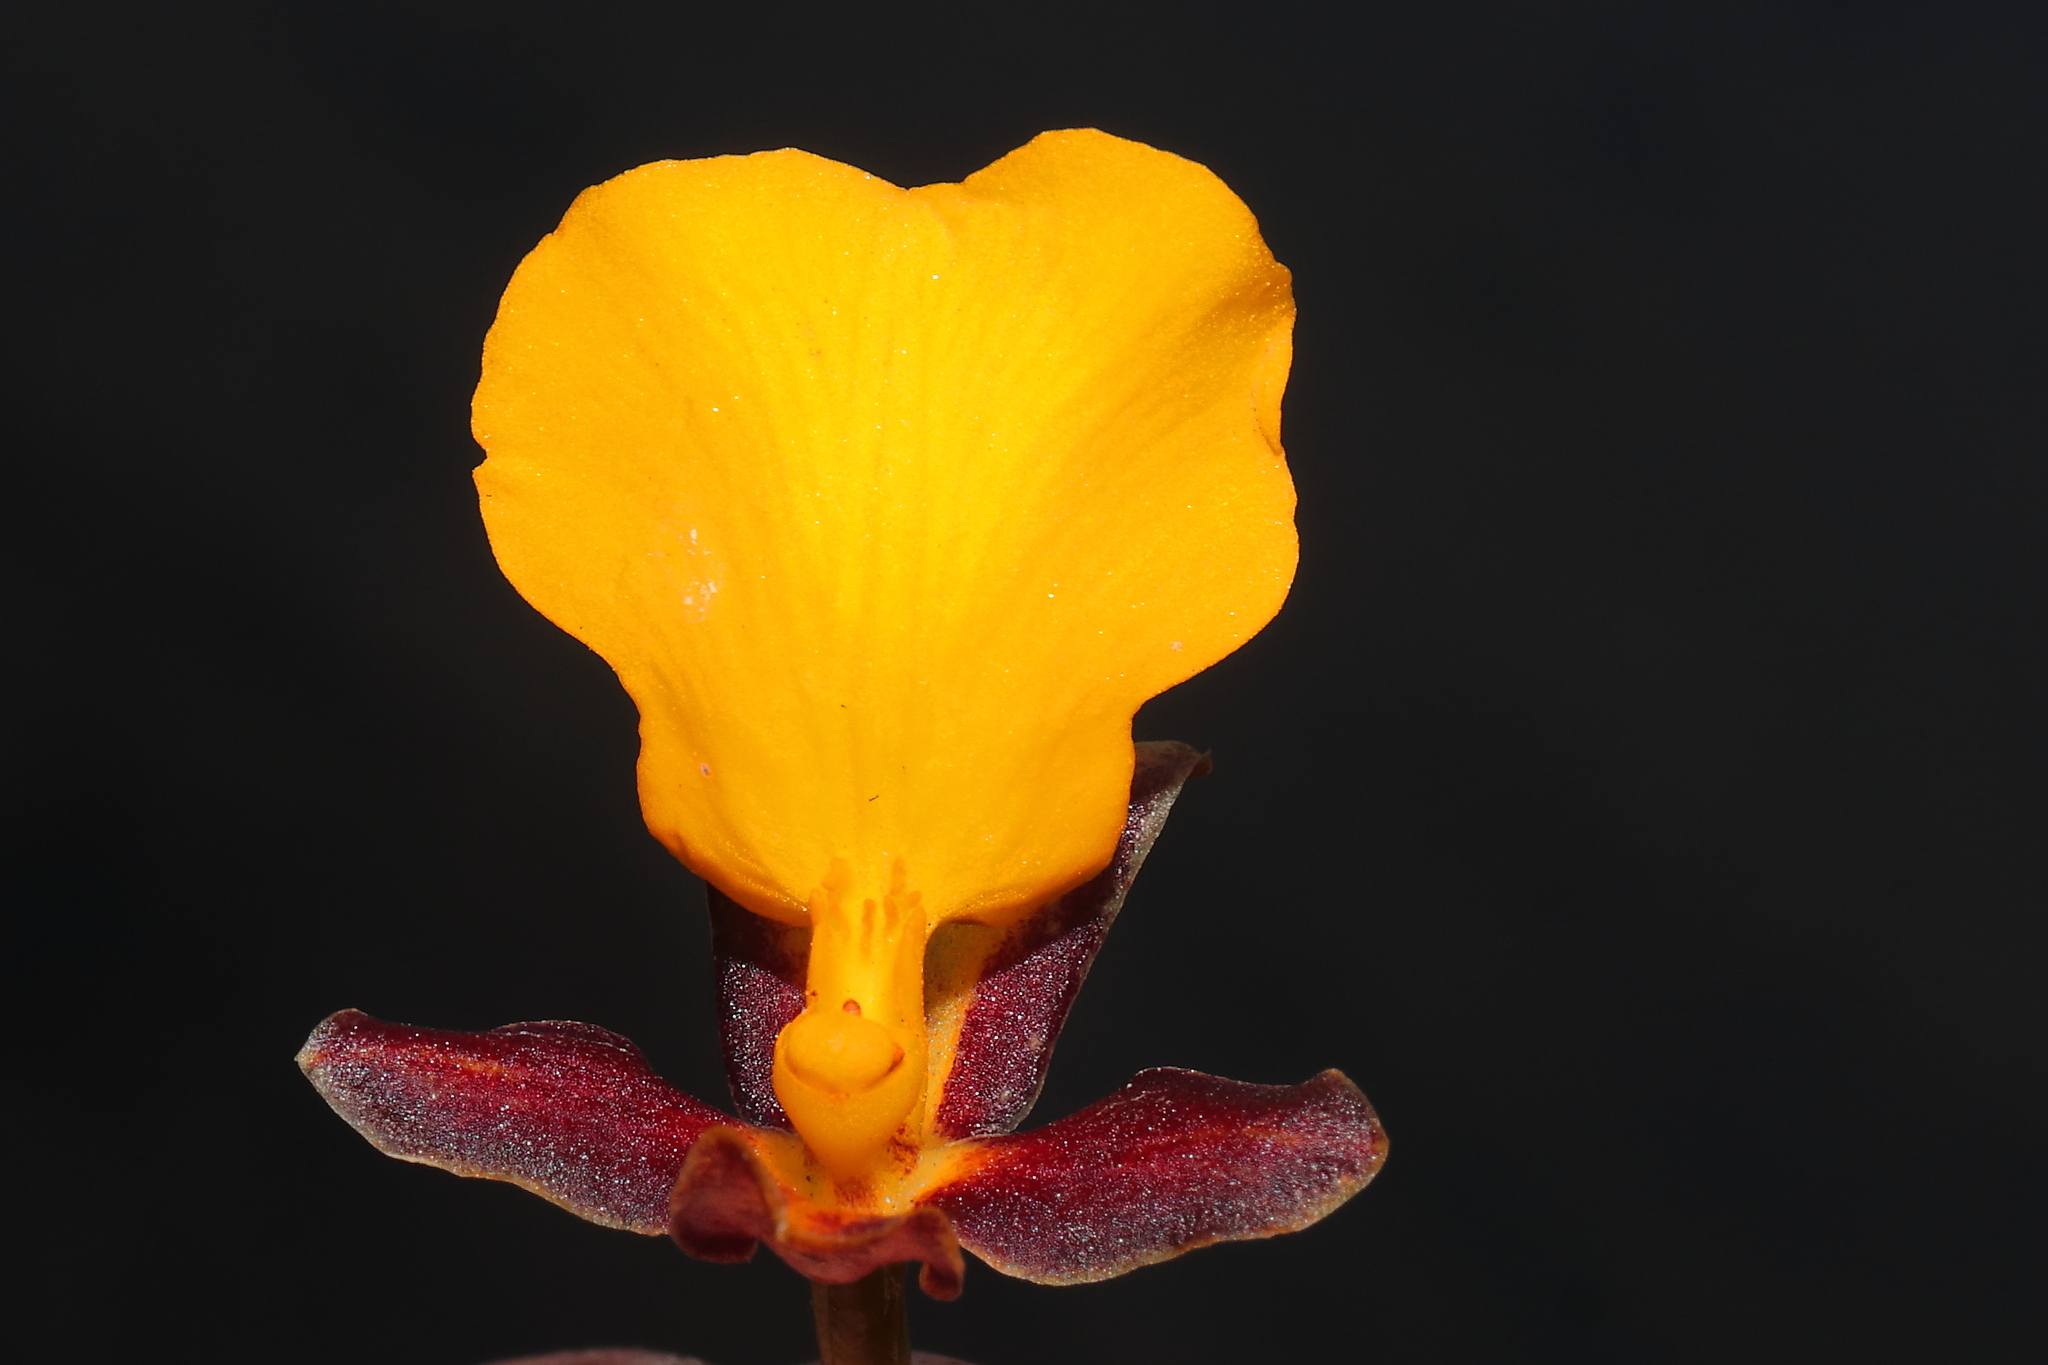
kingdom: Plantae
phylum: Tracheophyta
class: Liliopsida
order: Asparagales
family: Orchidaceae
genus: Cyrtochilum
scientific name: Cyrtochilum aureum
